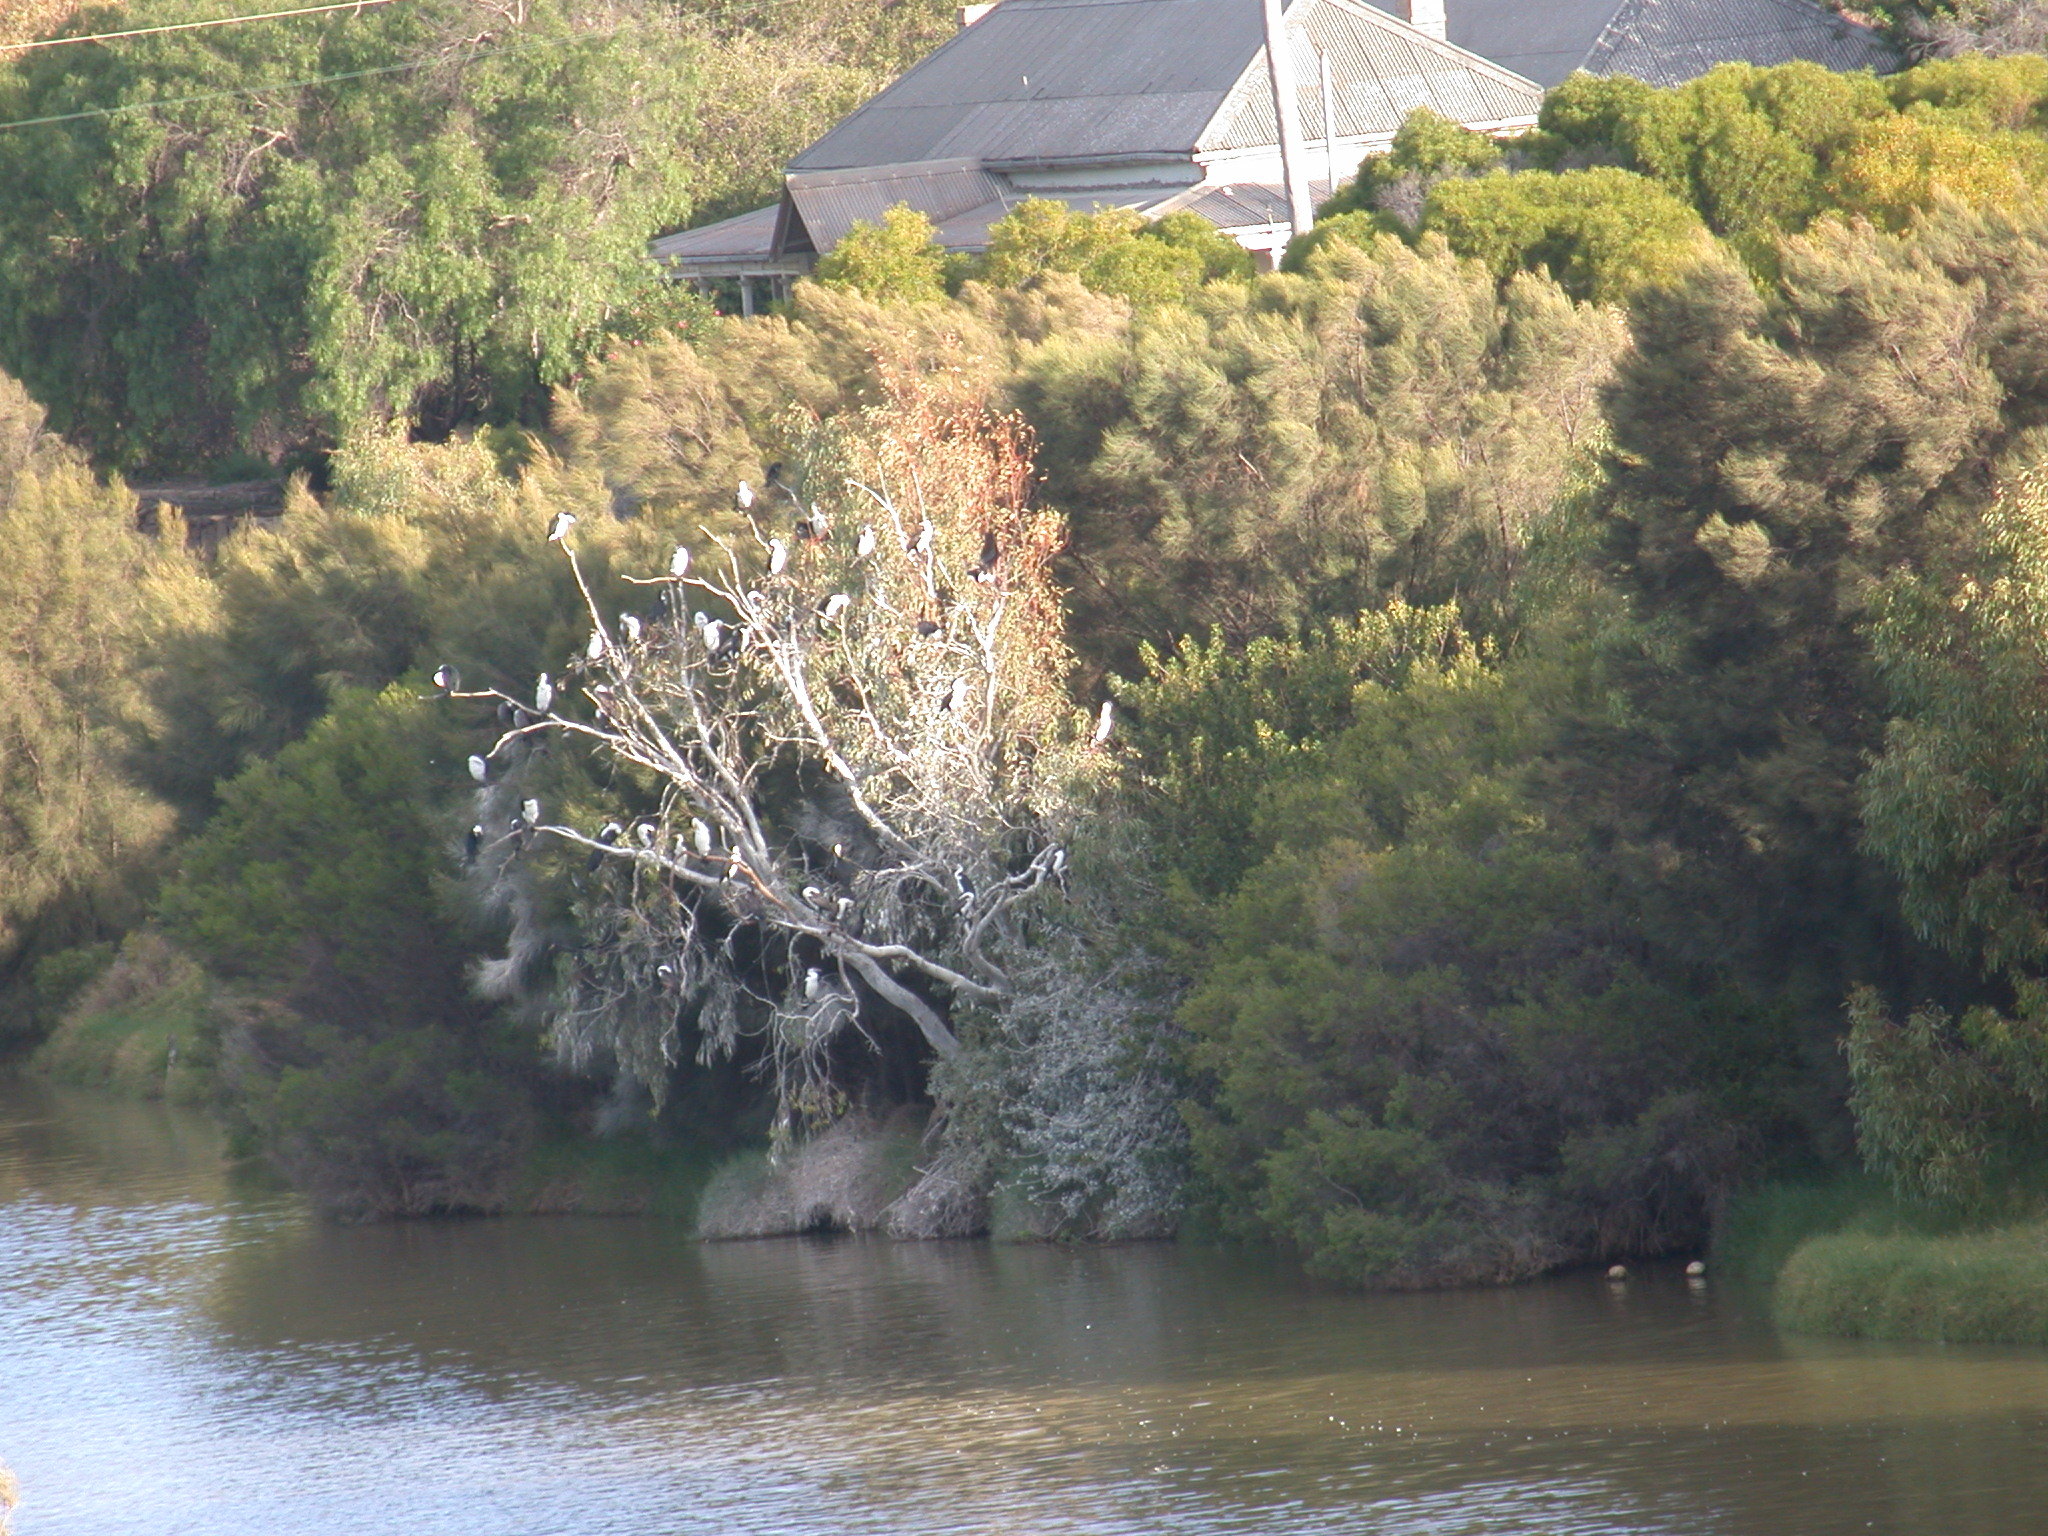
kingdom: Animalia
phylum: Chordata
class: Aves
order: Suliformes
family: Phalacrocoracidae
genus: Phalacrocorax
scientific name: Phalacrocorax varius
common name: Pied cormorant
